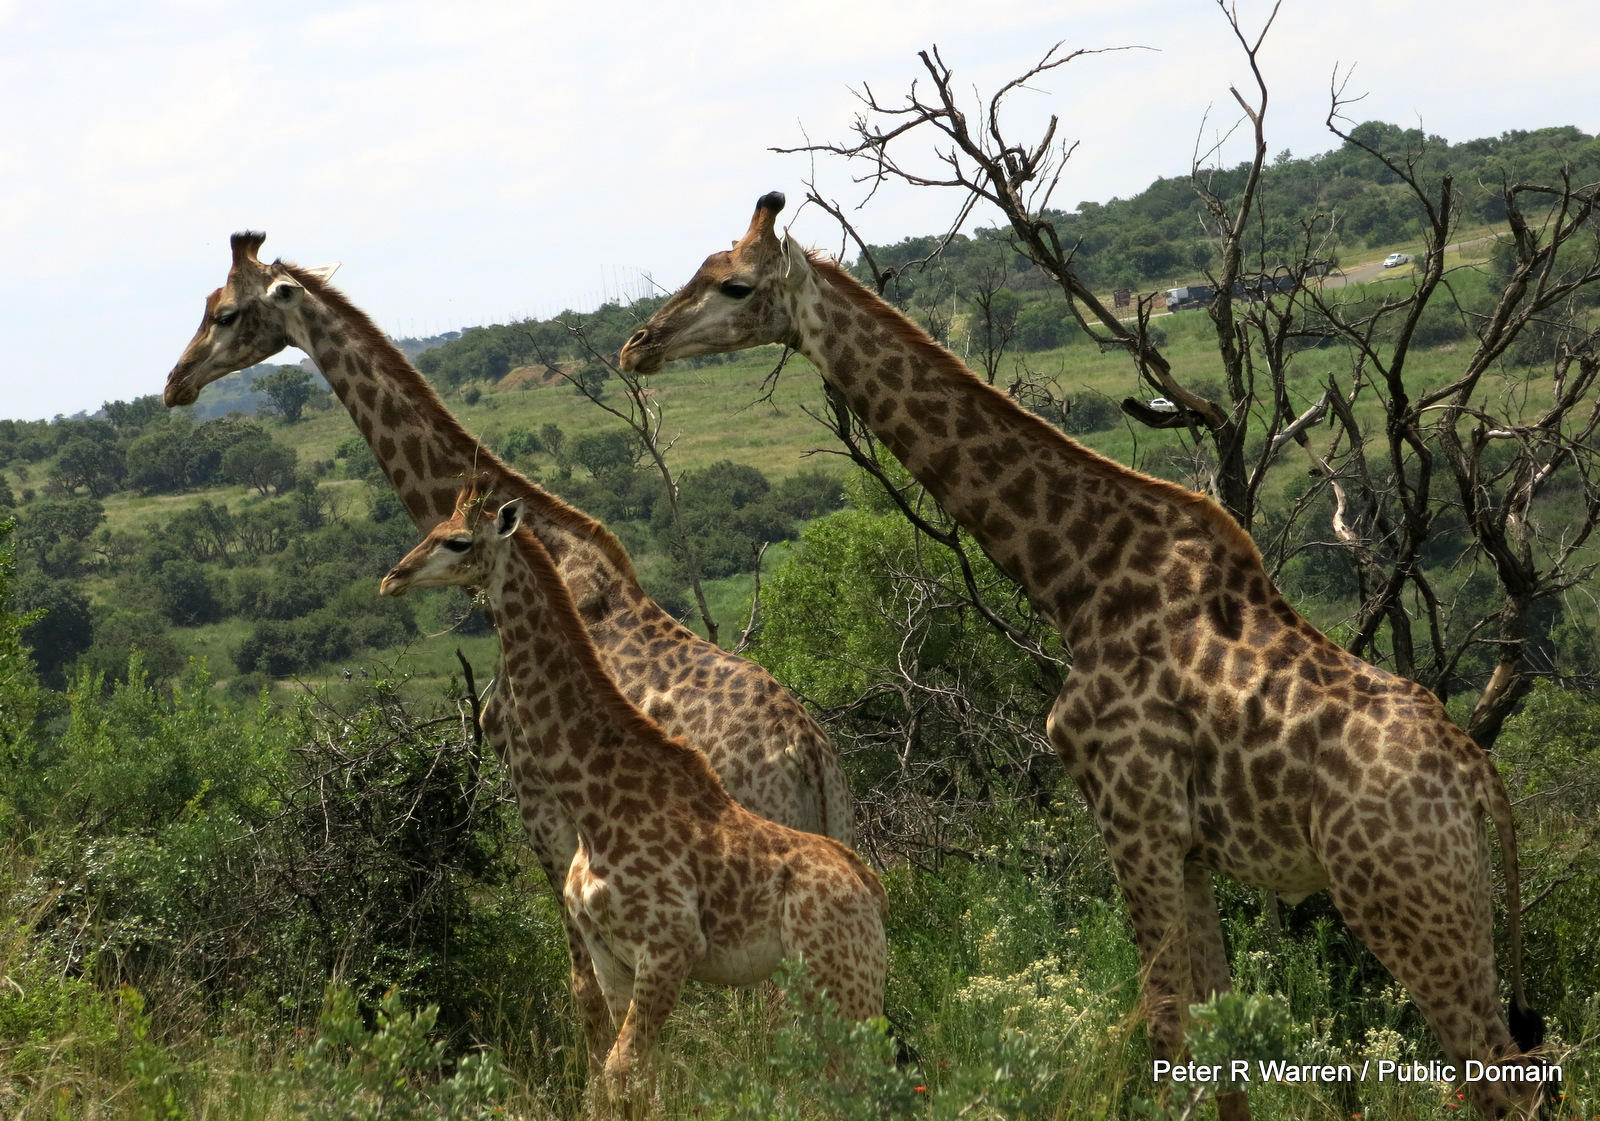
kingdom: Animalia
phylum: Chordata
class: Mammalia
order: Artiodactyla
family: Giraffidae
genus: Giraffa
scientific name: Giraffa giraffa
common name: Southern giraffe
